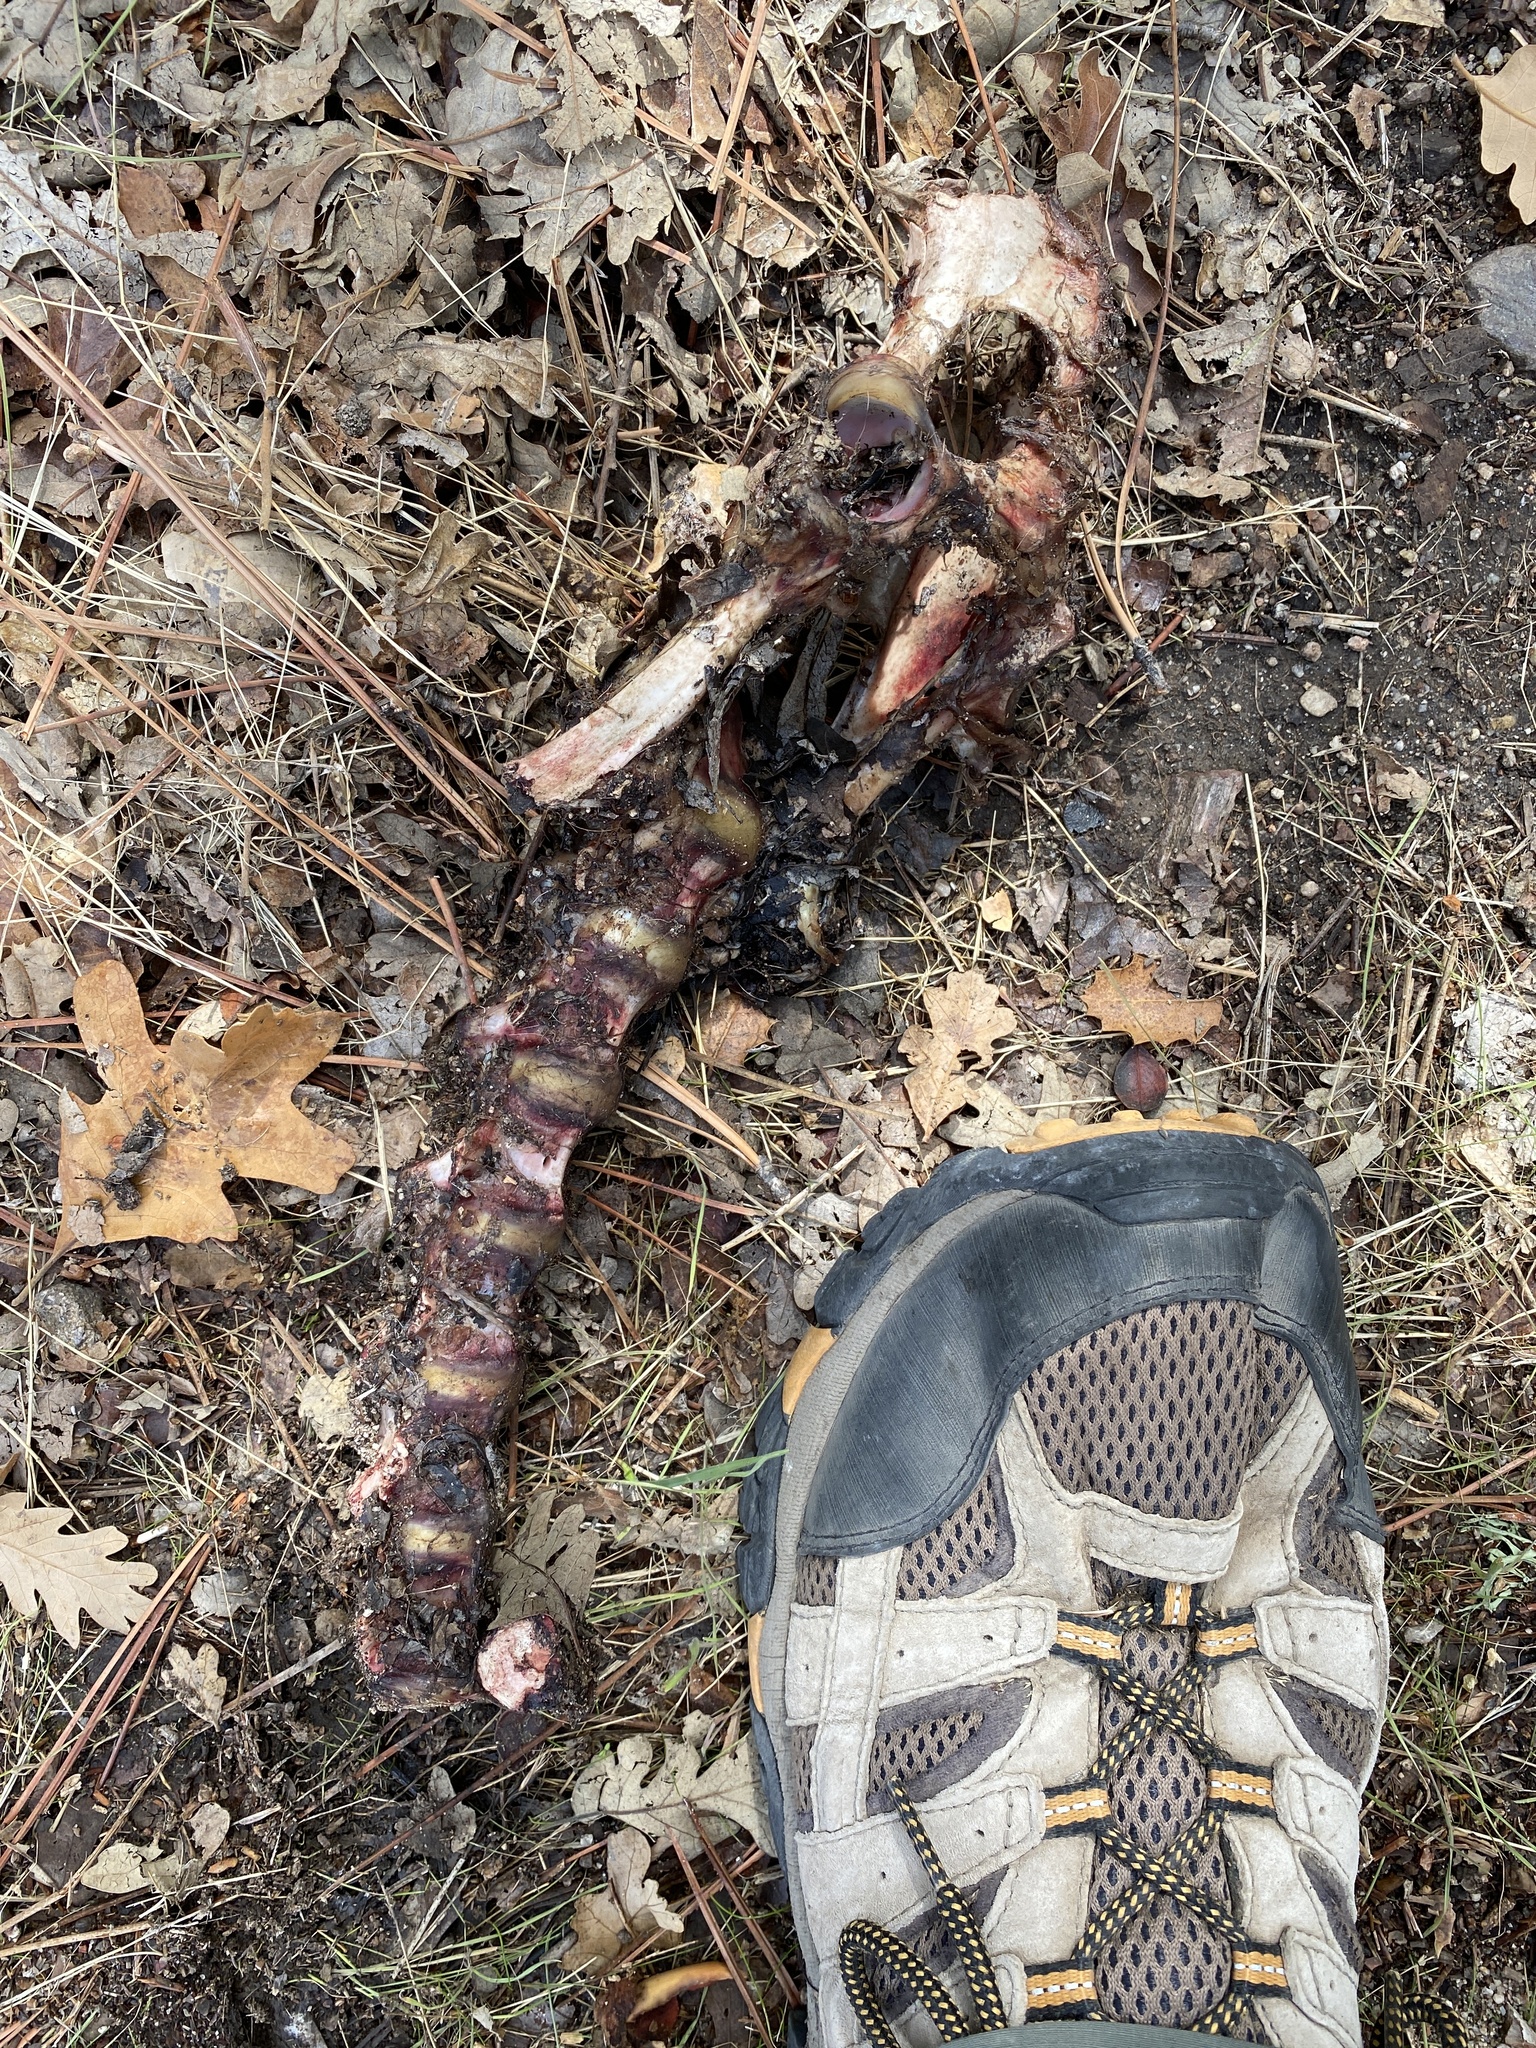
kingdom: Animalia
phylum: Chordata
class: Mammalia
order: Artiodactyla
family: Cervidae
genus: Odocoileus
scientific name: Odocoileus hemionus
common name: Mule deer
